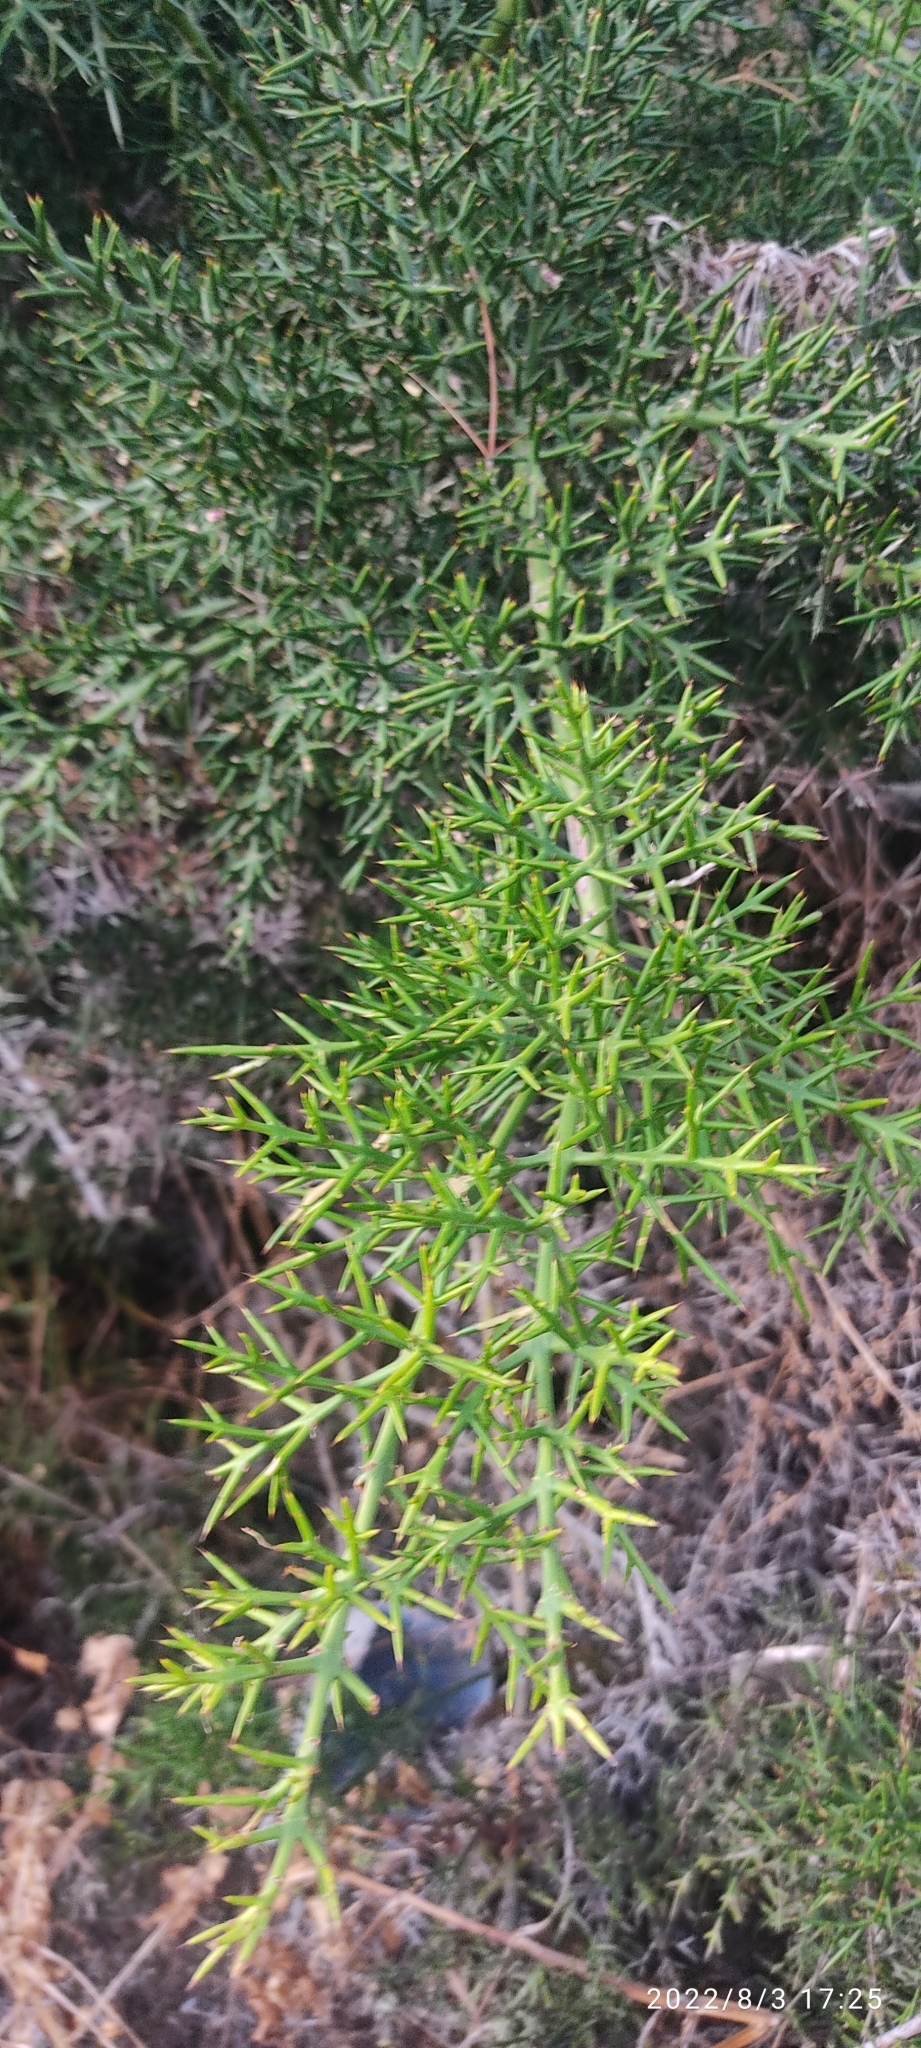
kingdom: Plantae
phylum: Tracheophyta
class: Magnoliopsida
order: Rosales
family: Rhamnaceae
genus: Colletia
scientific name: Colletia spinosissima
